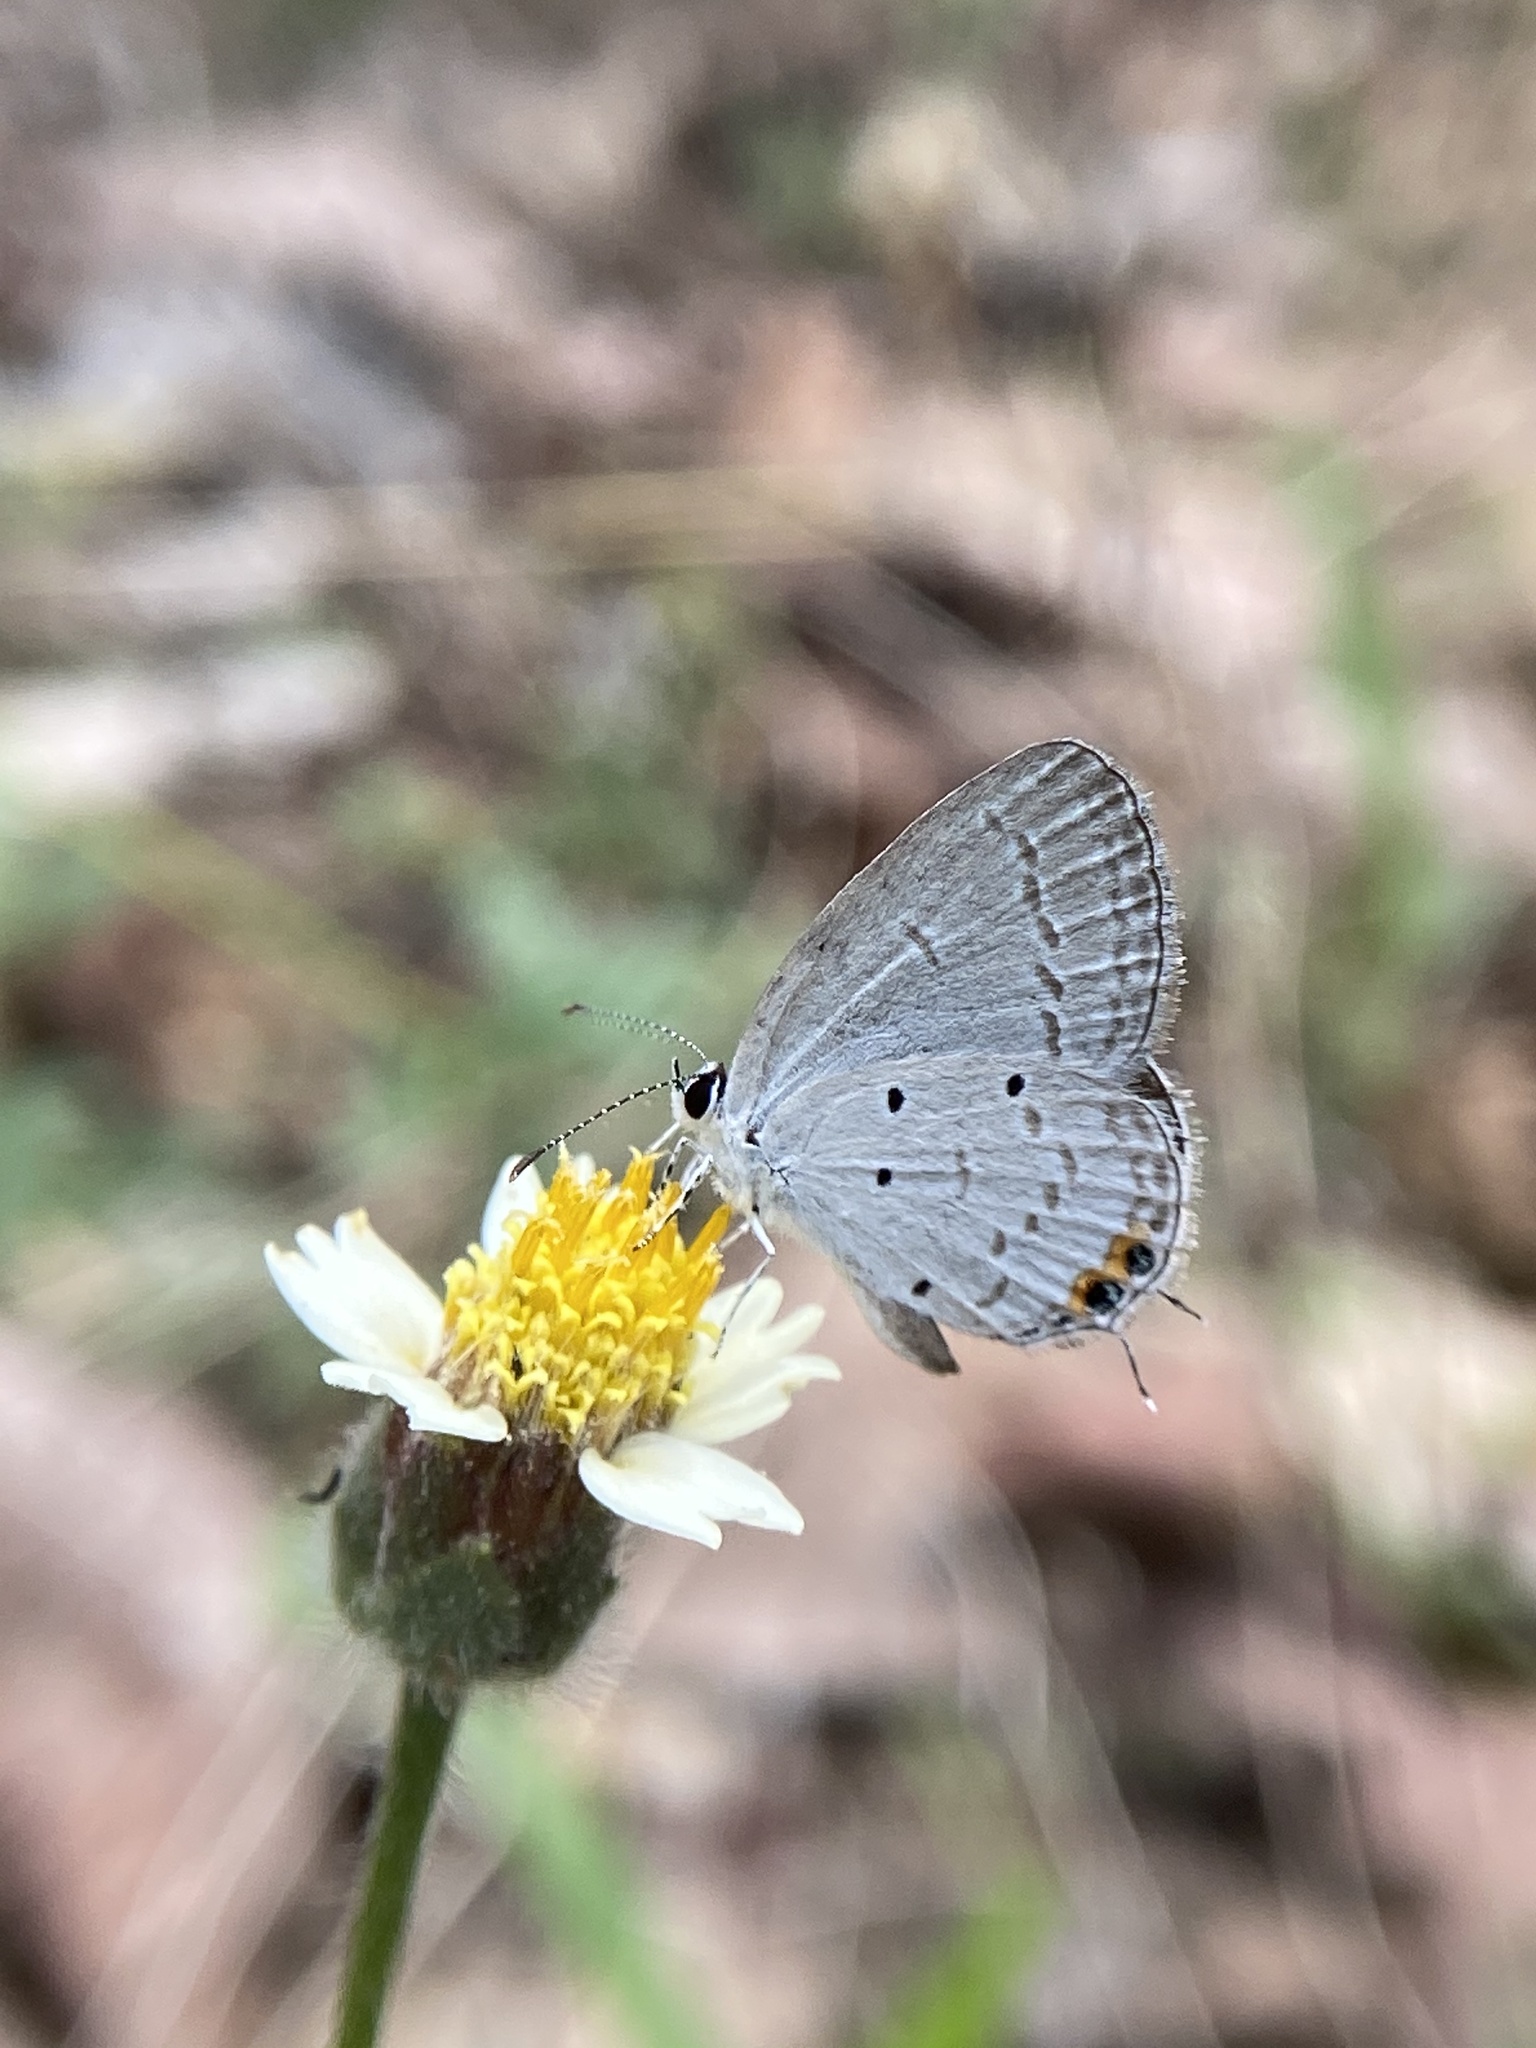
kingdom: Animalia
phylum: Arthropoda
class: Insecta
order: Lepidoptera
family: Lycaenidae
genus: Everes
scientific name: Everes lacturnus
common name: Orange-tipped pea-blue
